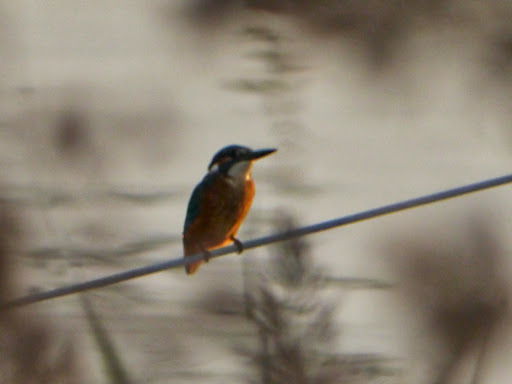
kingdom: Animalia
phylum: Chordata
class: Aves
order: Coraciiformes
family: Alcedinidae
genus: Alcedo
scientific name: Alcedo atthis
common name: Common kingfisher
